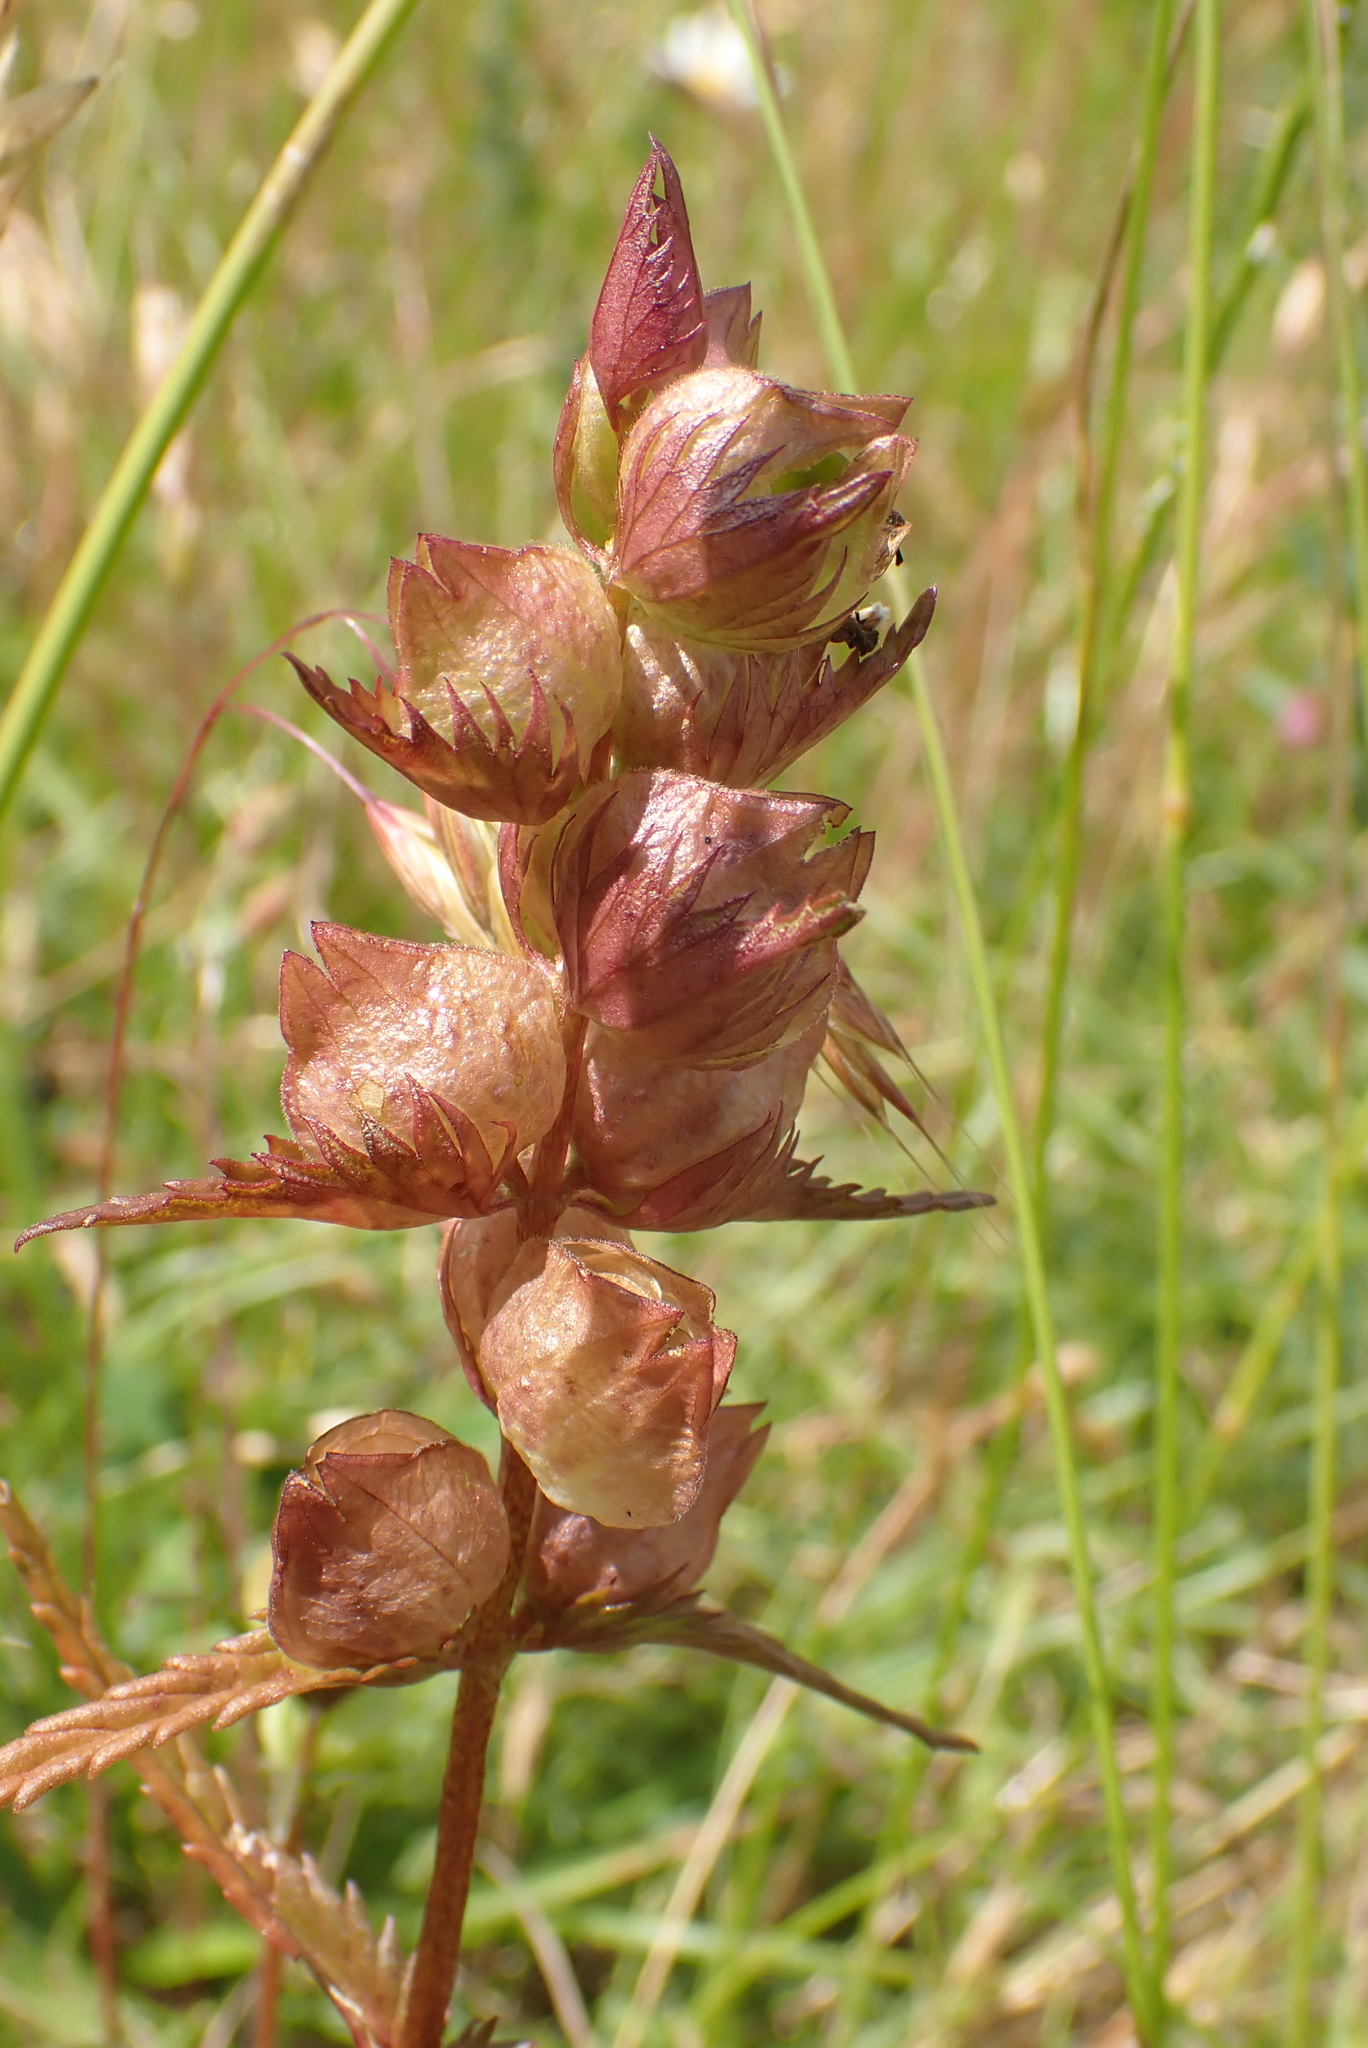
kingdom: Plantae
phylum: Tracheophyta
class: Magnoliopsida
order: Lamiales
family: Orobanchaceae
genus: Rhinanthus
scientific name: Rhinanthus minor
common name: Yellow-rattle
